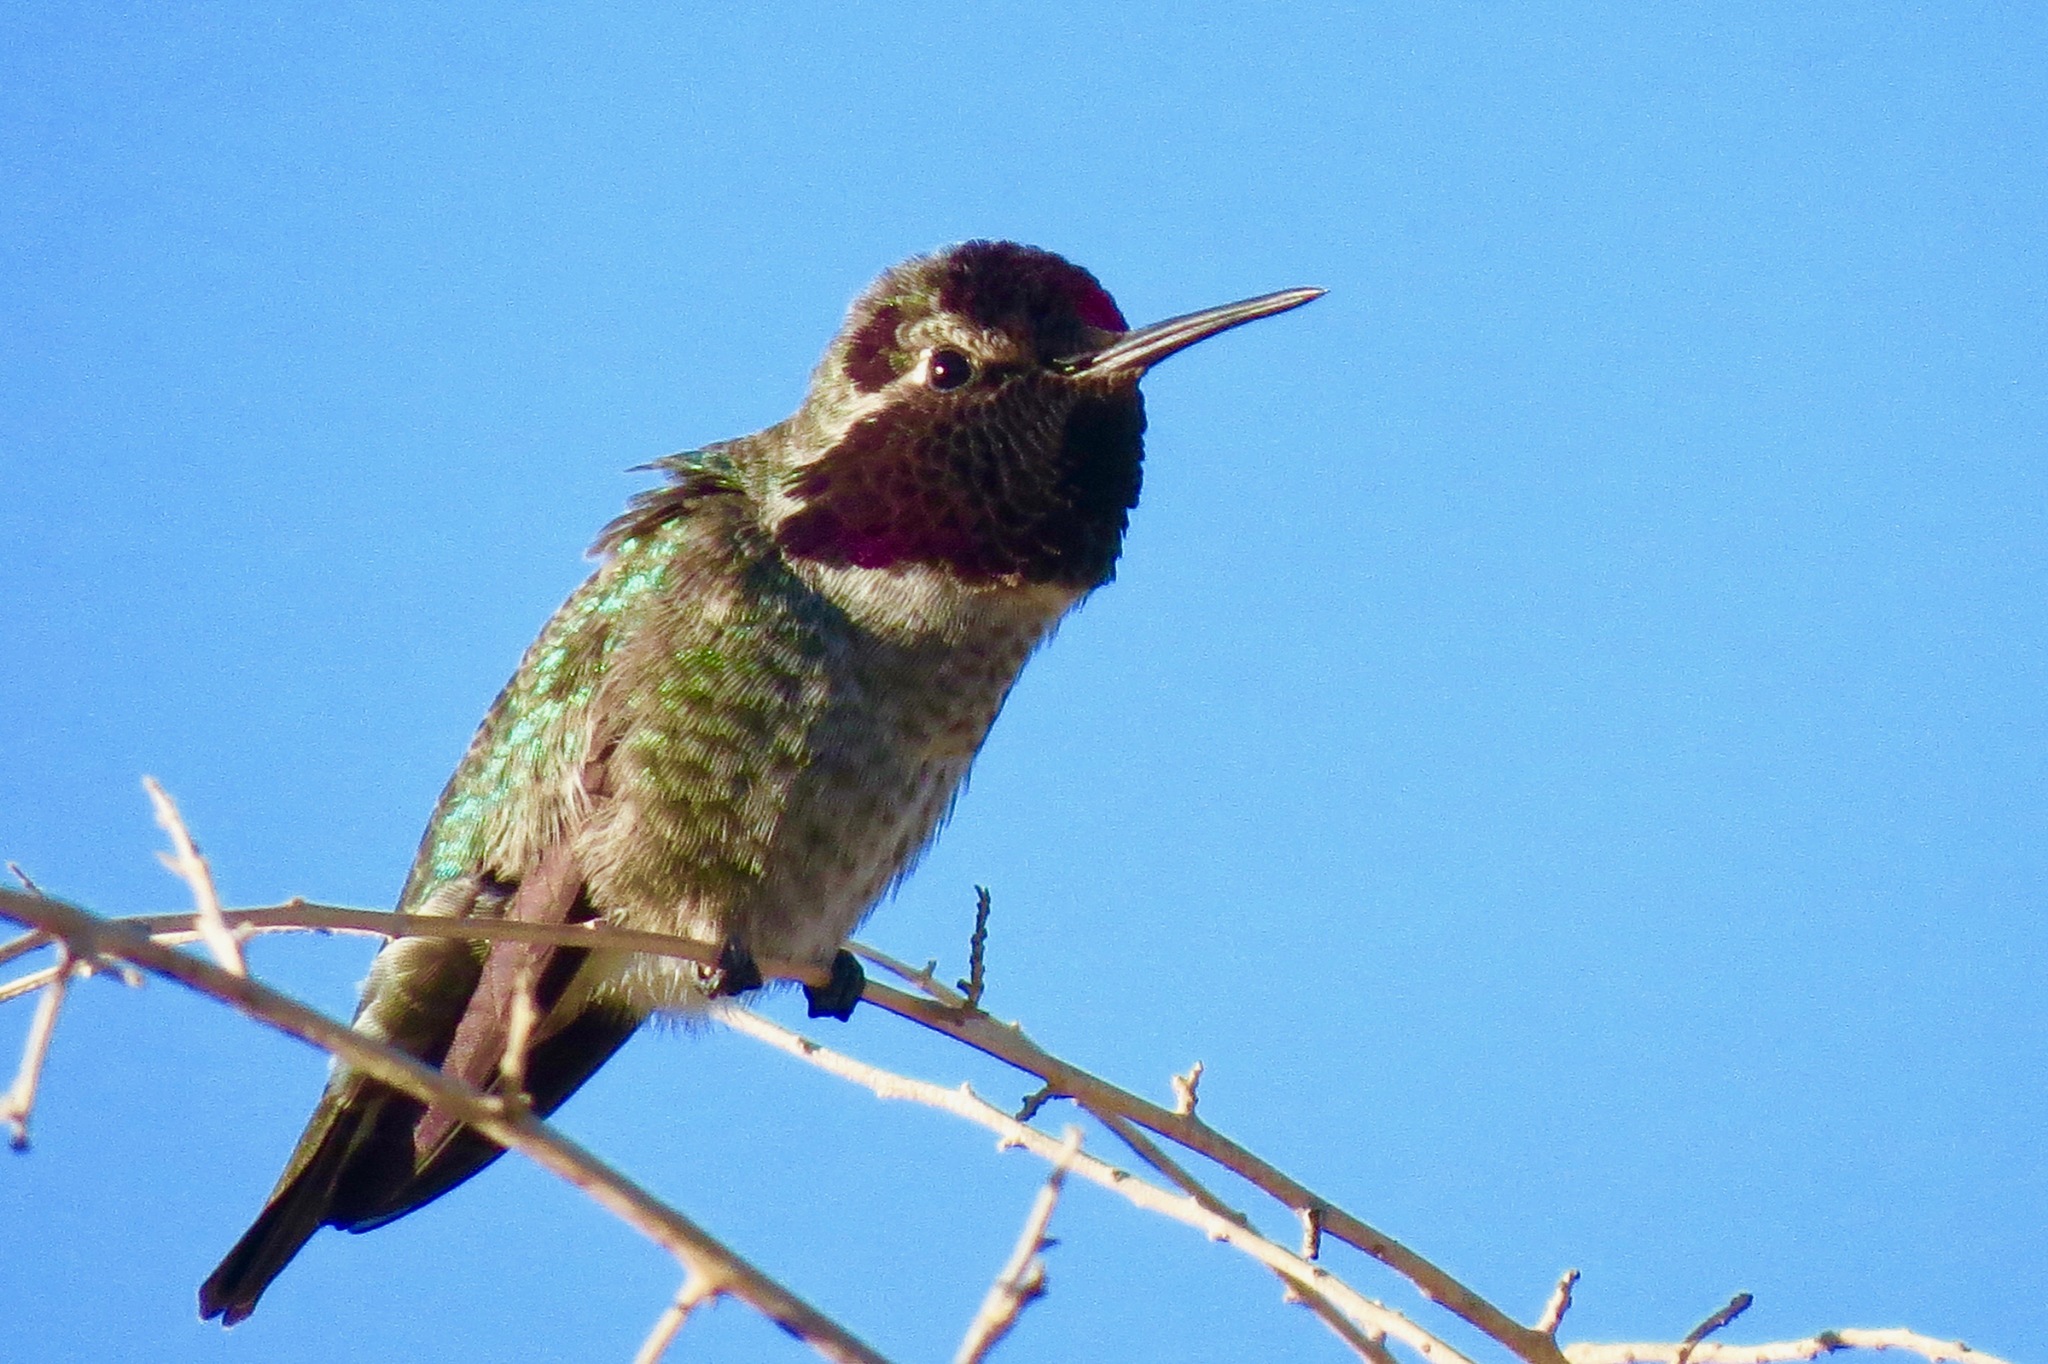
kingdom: Animalia
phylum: Chordata
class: Aves
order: Apodiformes
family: Trochilidae
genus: Calypte
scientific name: Calypte anna
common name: Anna's hummingbird
